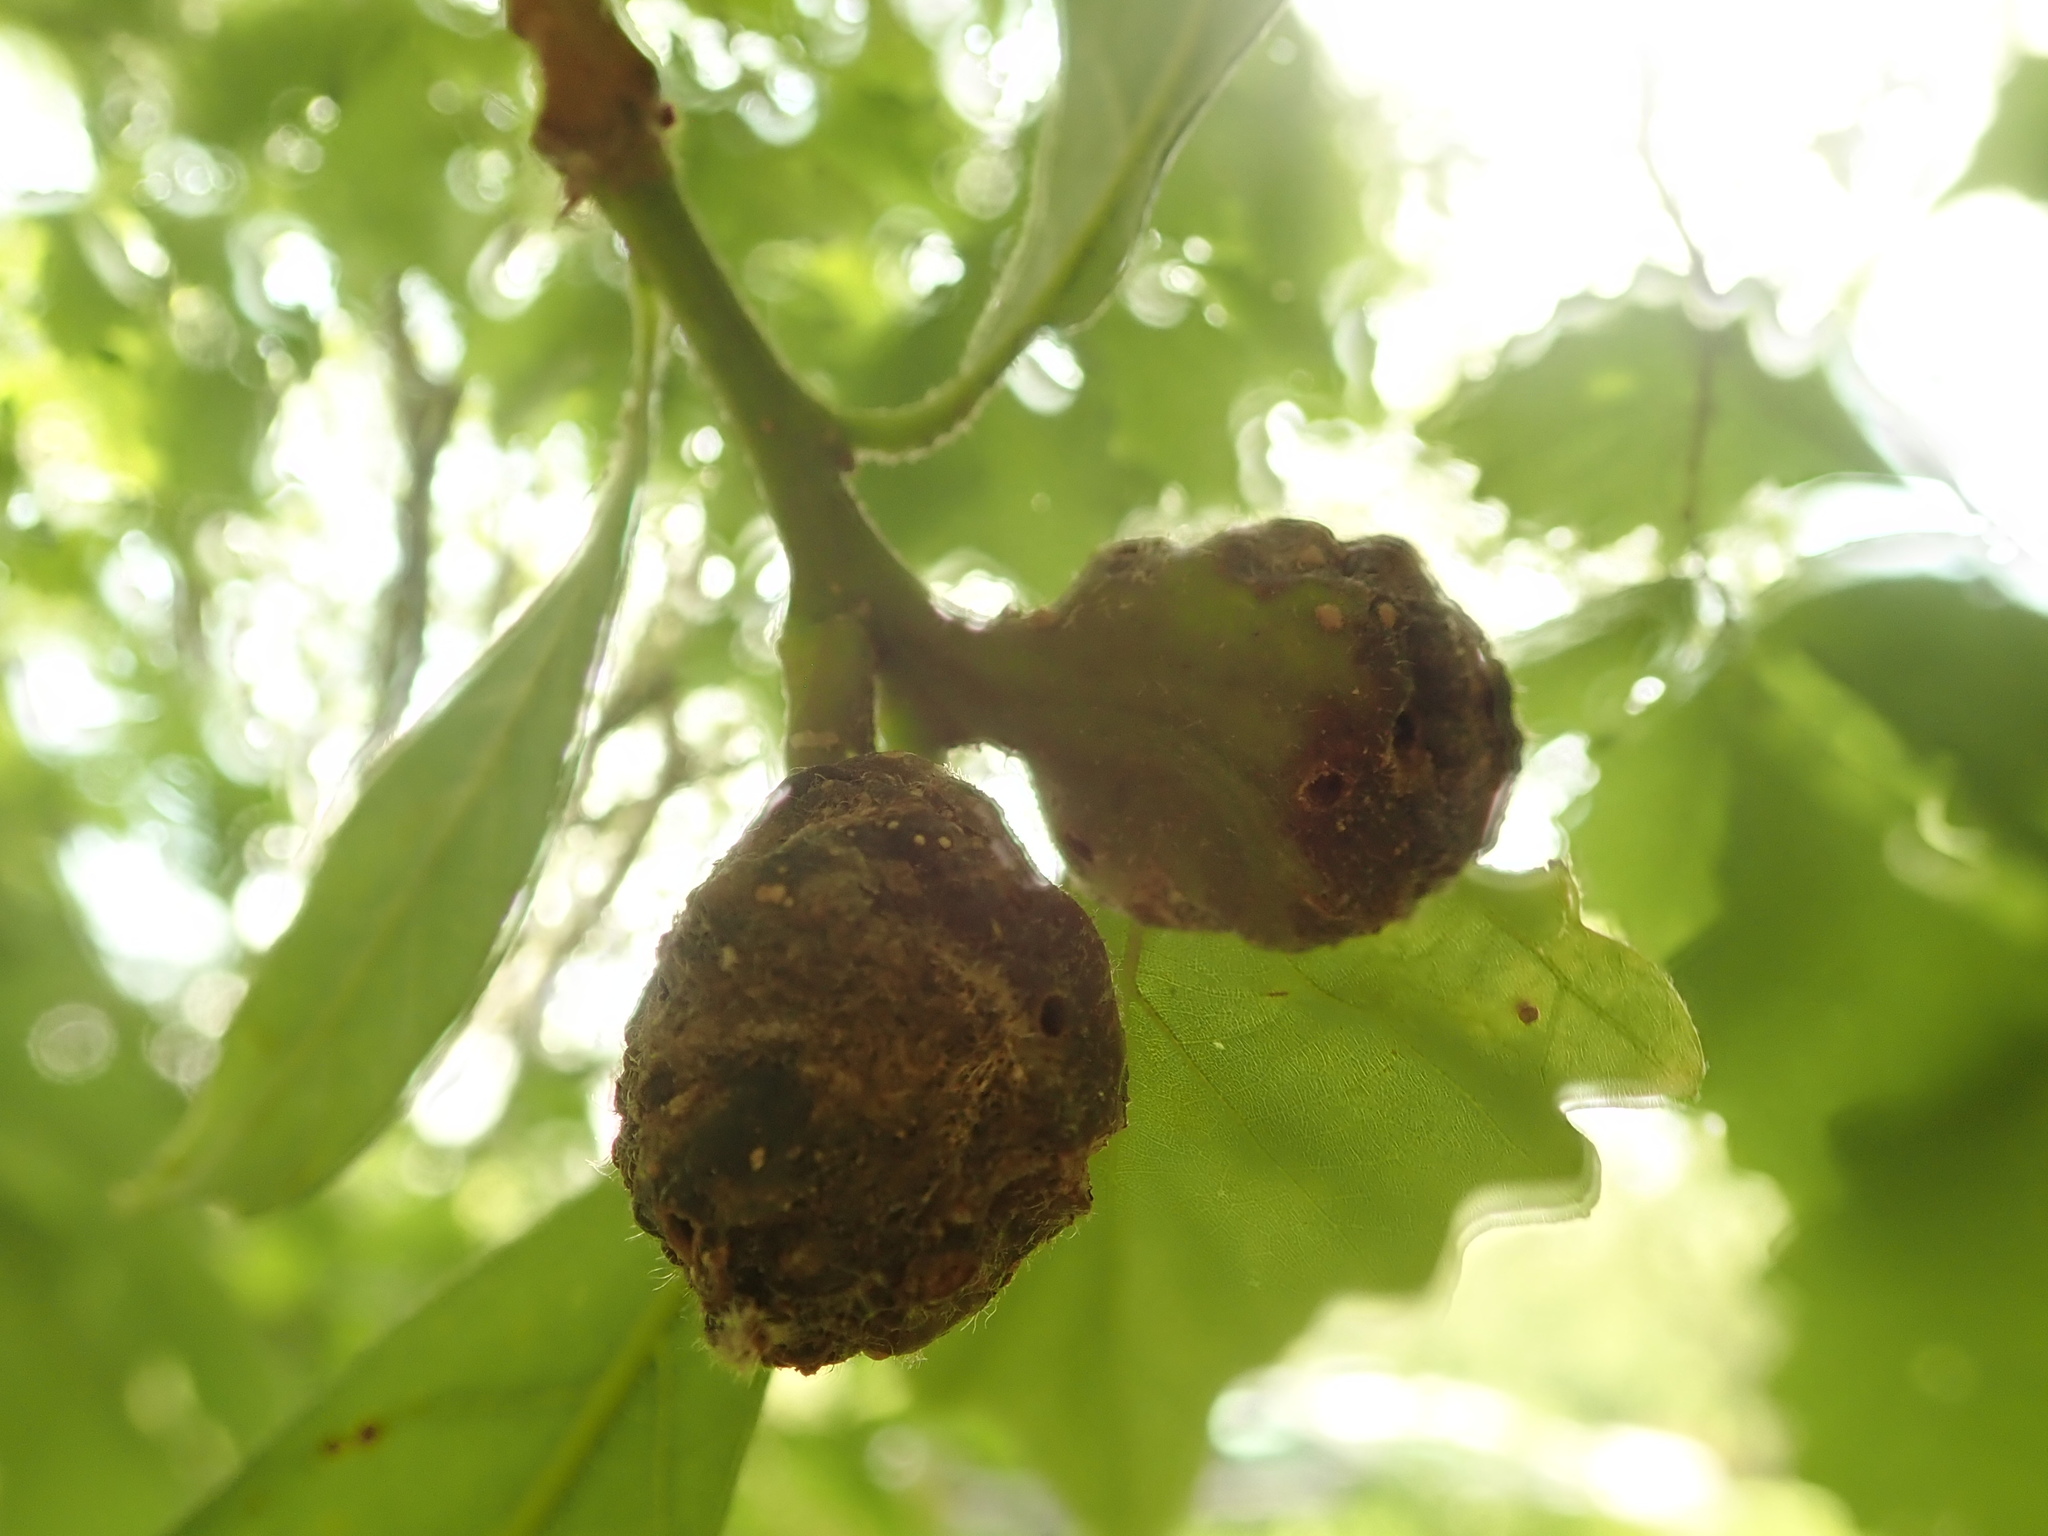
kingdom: Animalia
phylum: Arthropoda
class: Insecta
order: Hymenoptera
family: Cynipidae
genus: Andricus
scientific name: Andricus
